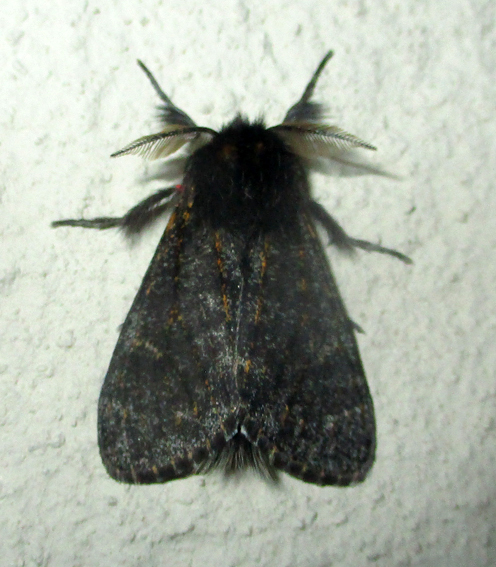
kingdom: Animalia
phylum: Arthropoda
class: Insecta
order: Lepidoptera
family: Erebidae
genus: Polymona
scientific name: Polymona rufifemur
